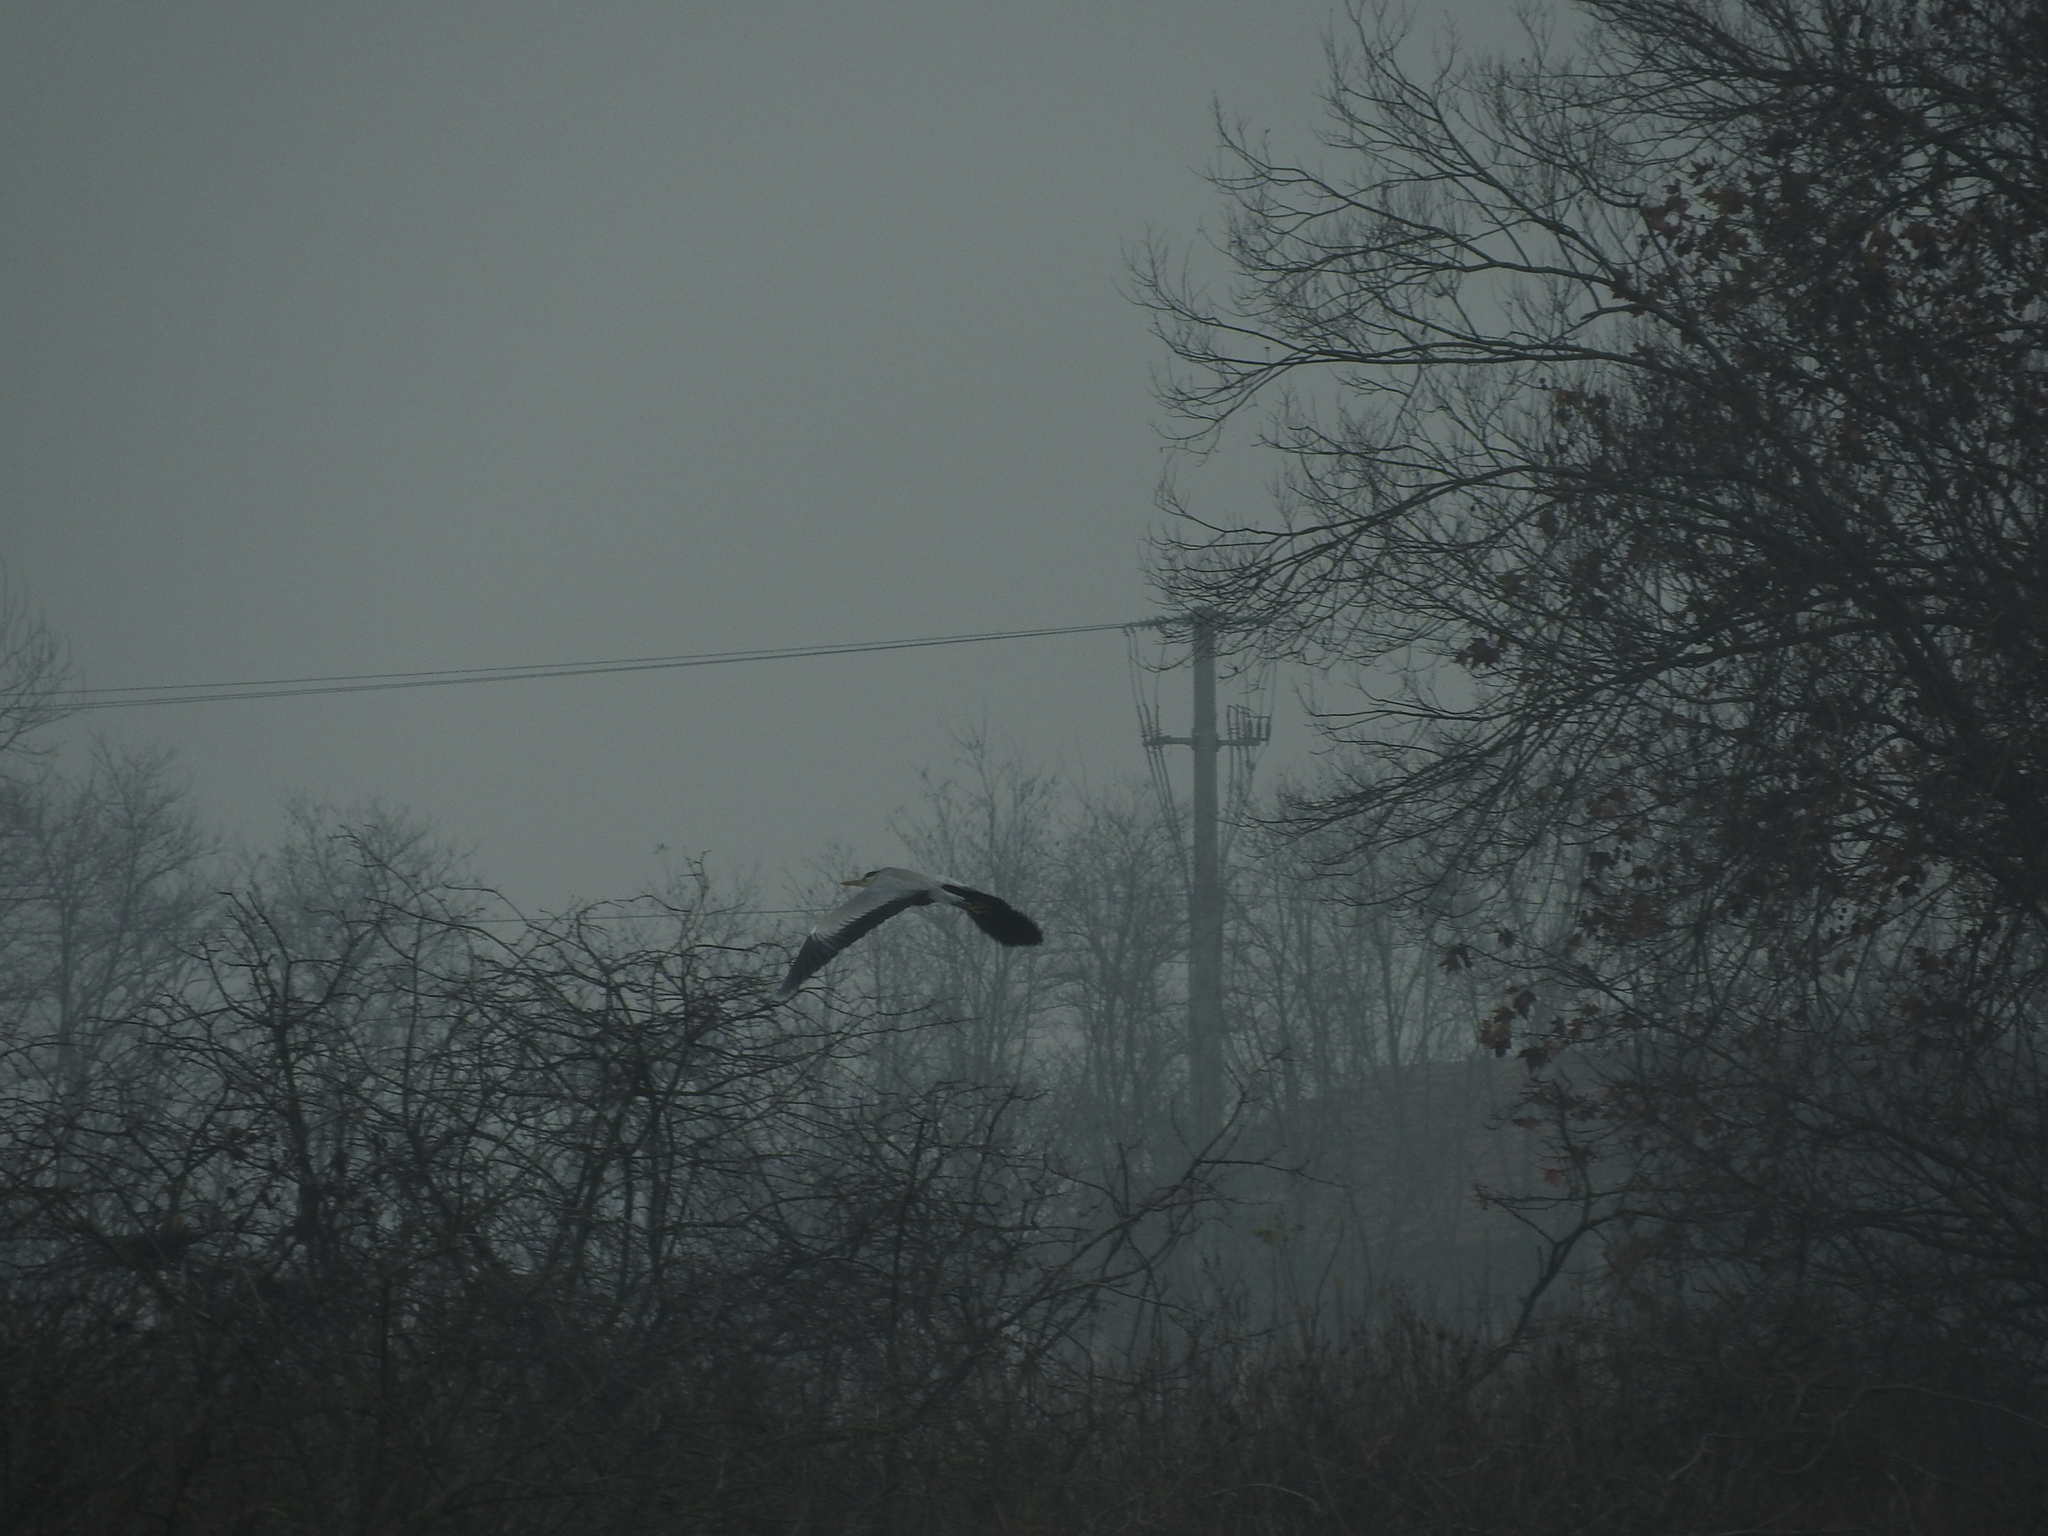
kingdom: Animalia
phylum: Chordata
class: Aves
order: Pelecaniformes
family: Ardeidae
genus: Ardea
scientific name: Ardea cinerea
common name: Grey heron
